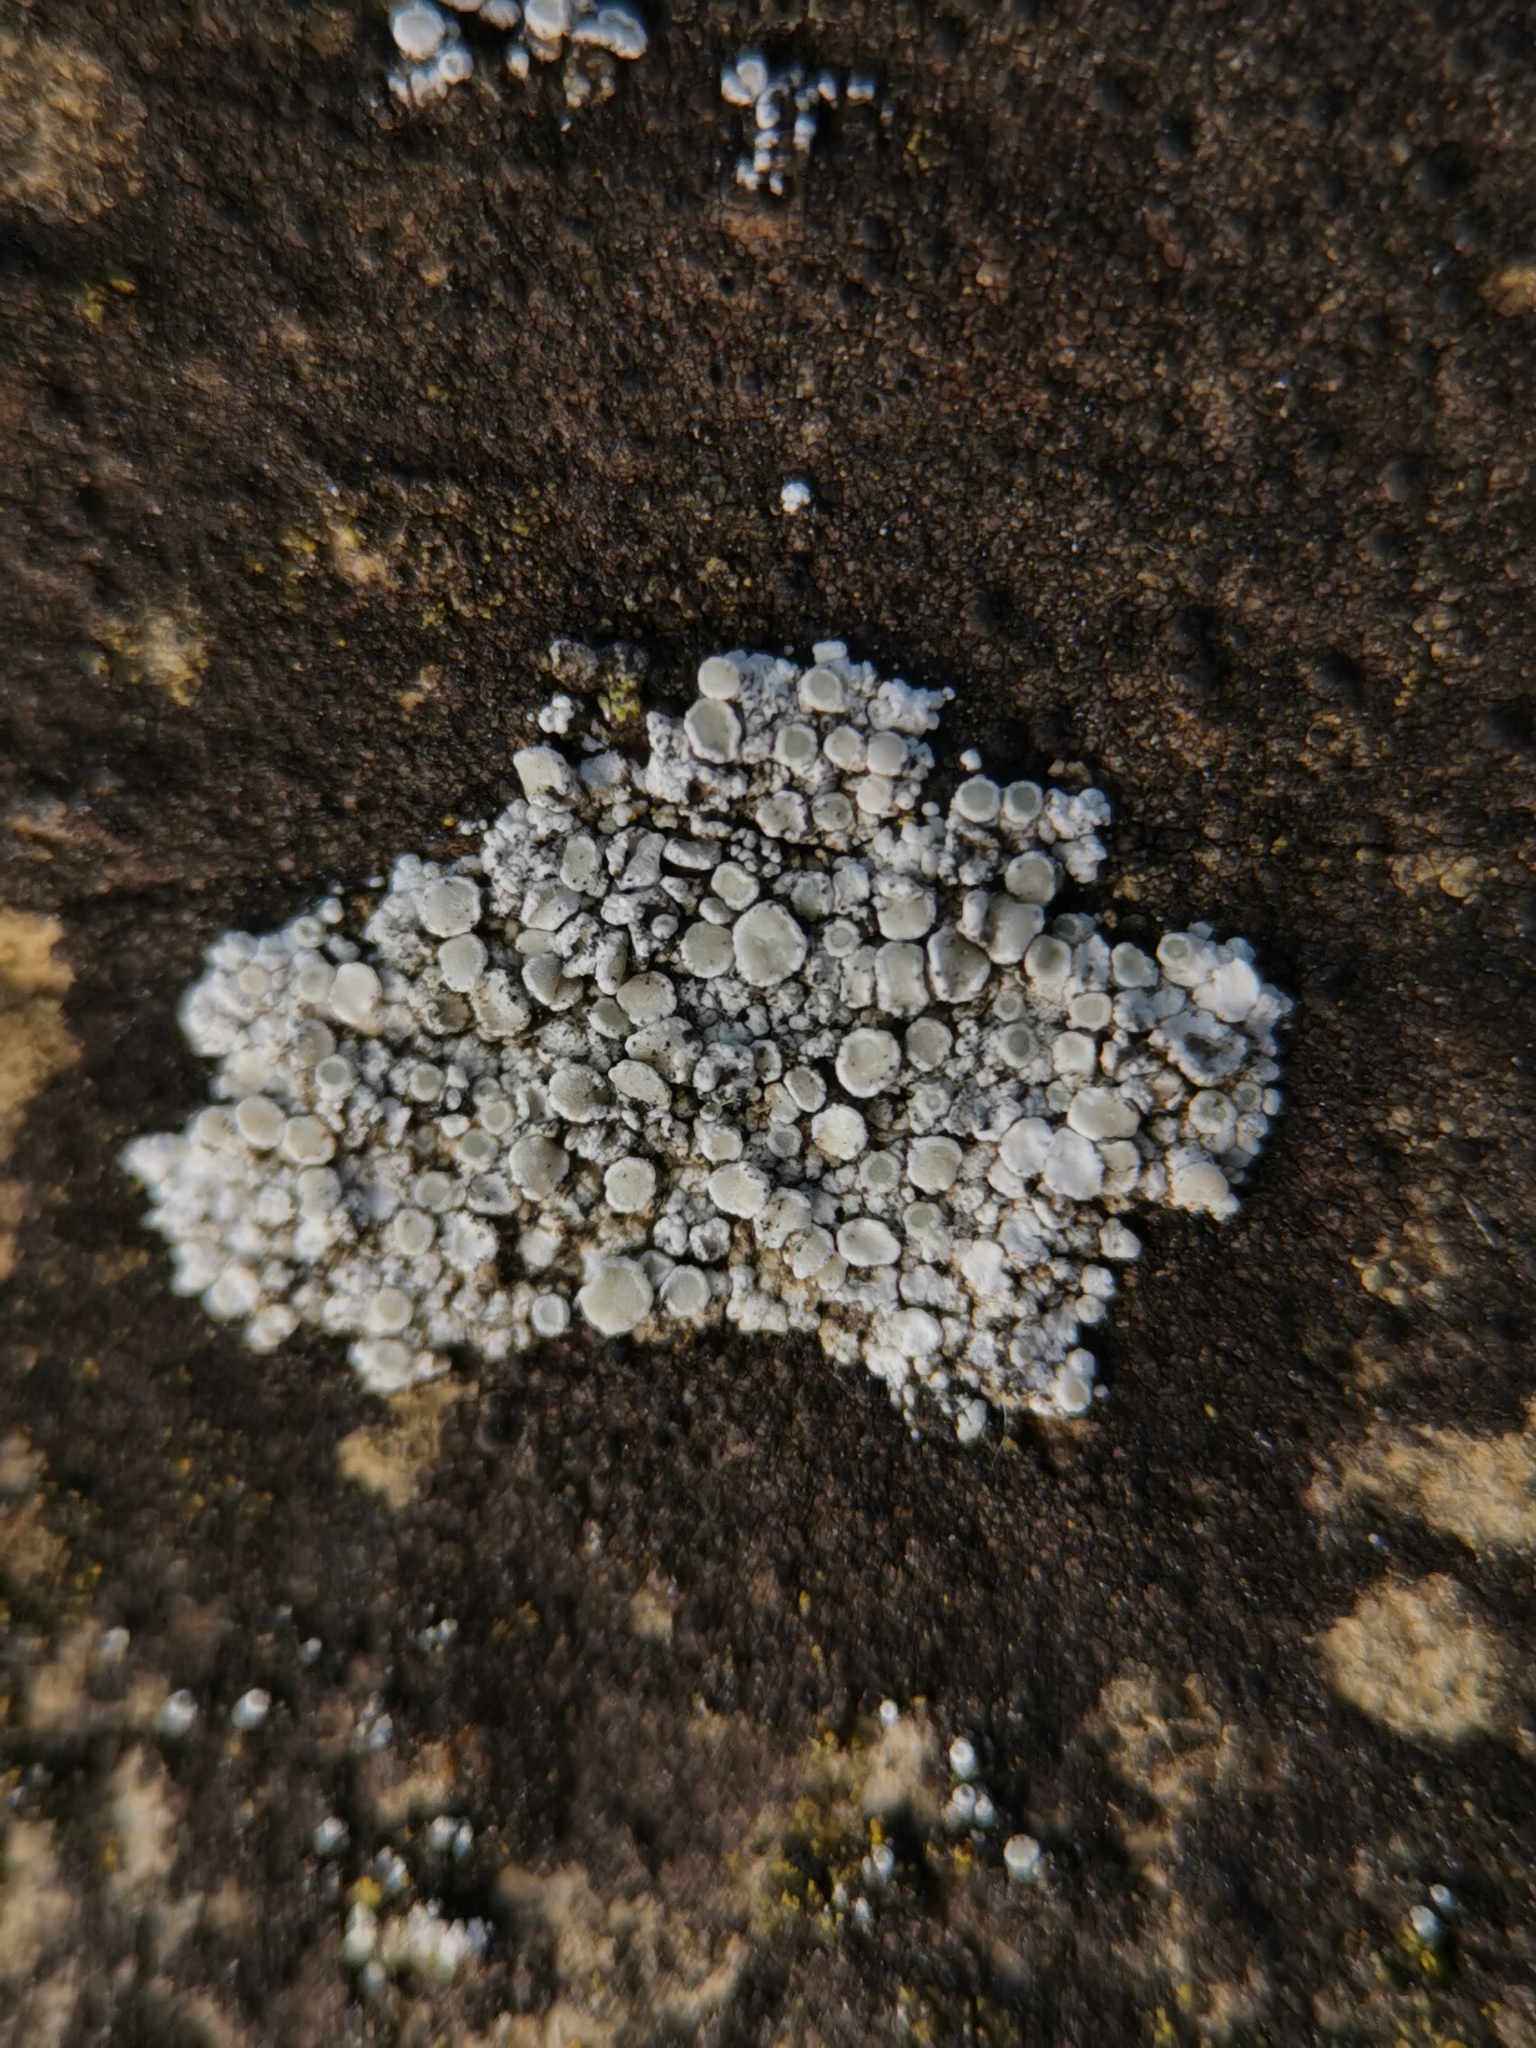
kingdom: Fungi
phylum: Ascomycota
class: Lecanoromycetes
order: Lecanorales
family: Lecanoraceae
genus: Polyozosia
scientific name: Polyozosia albescens
